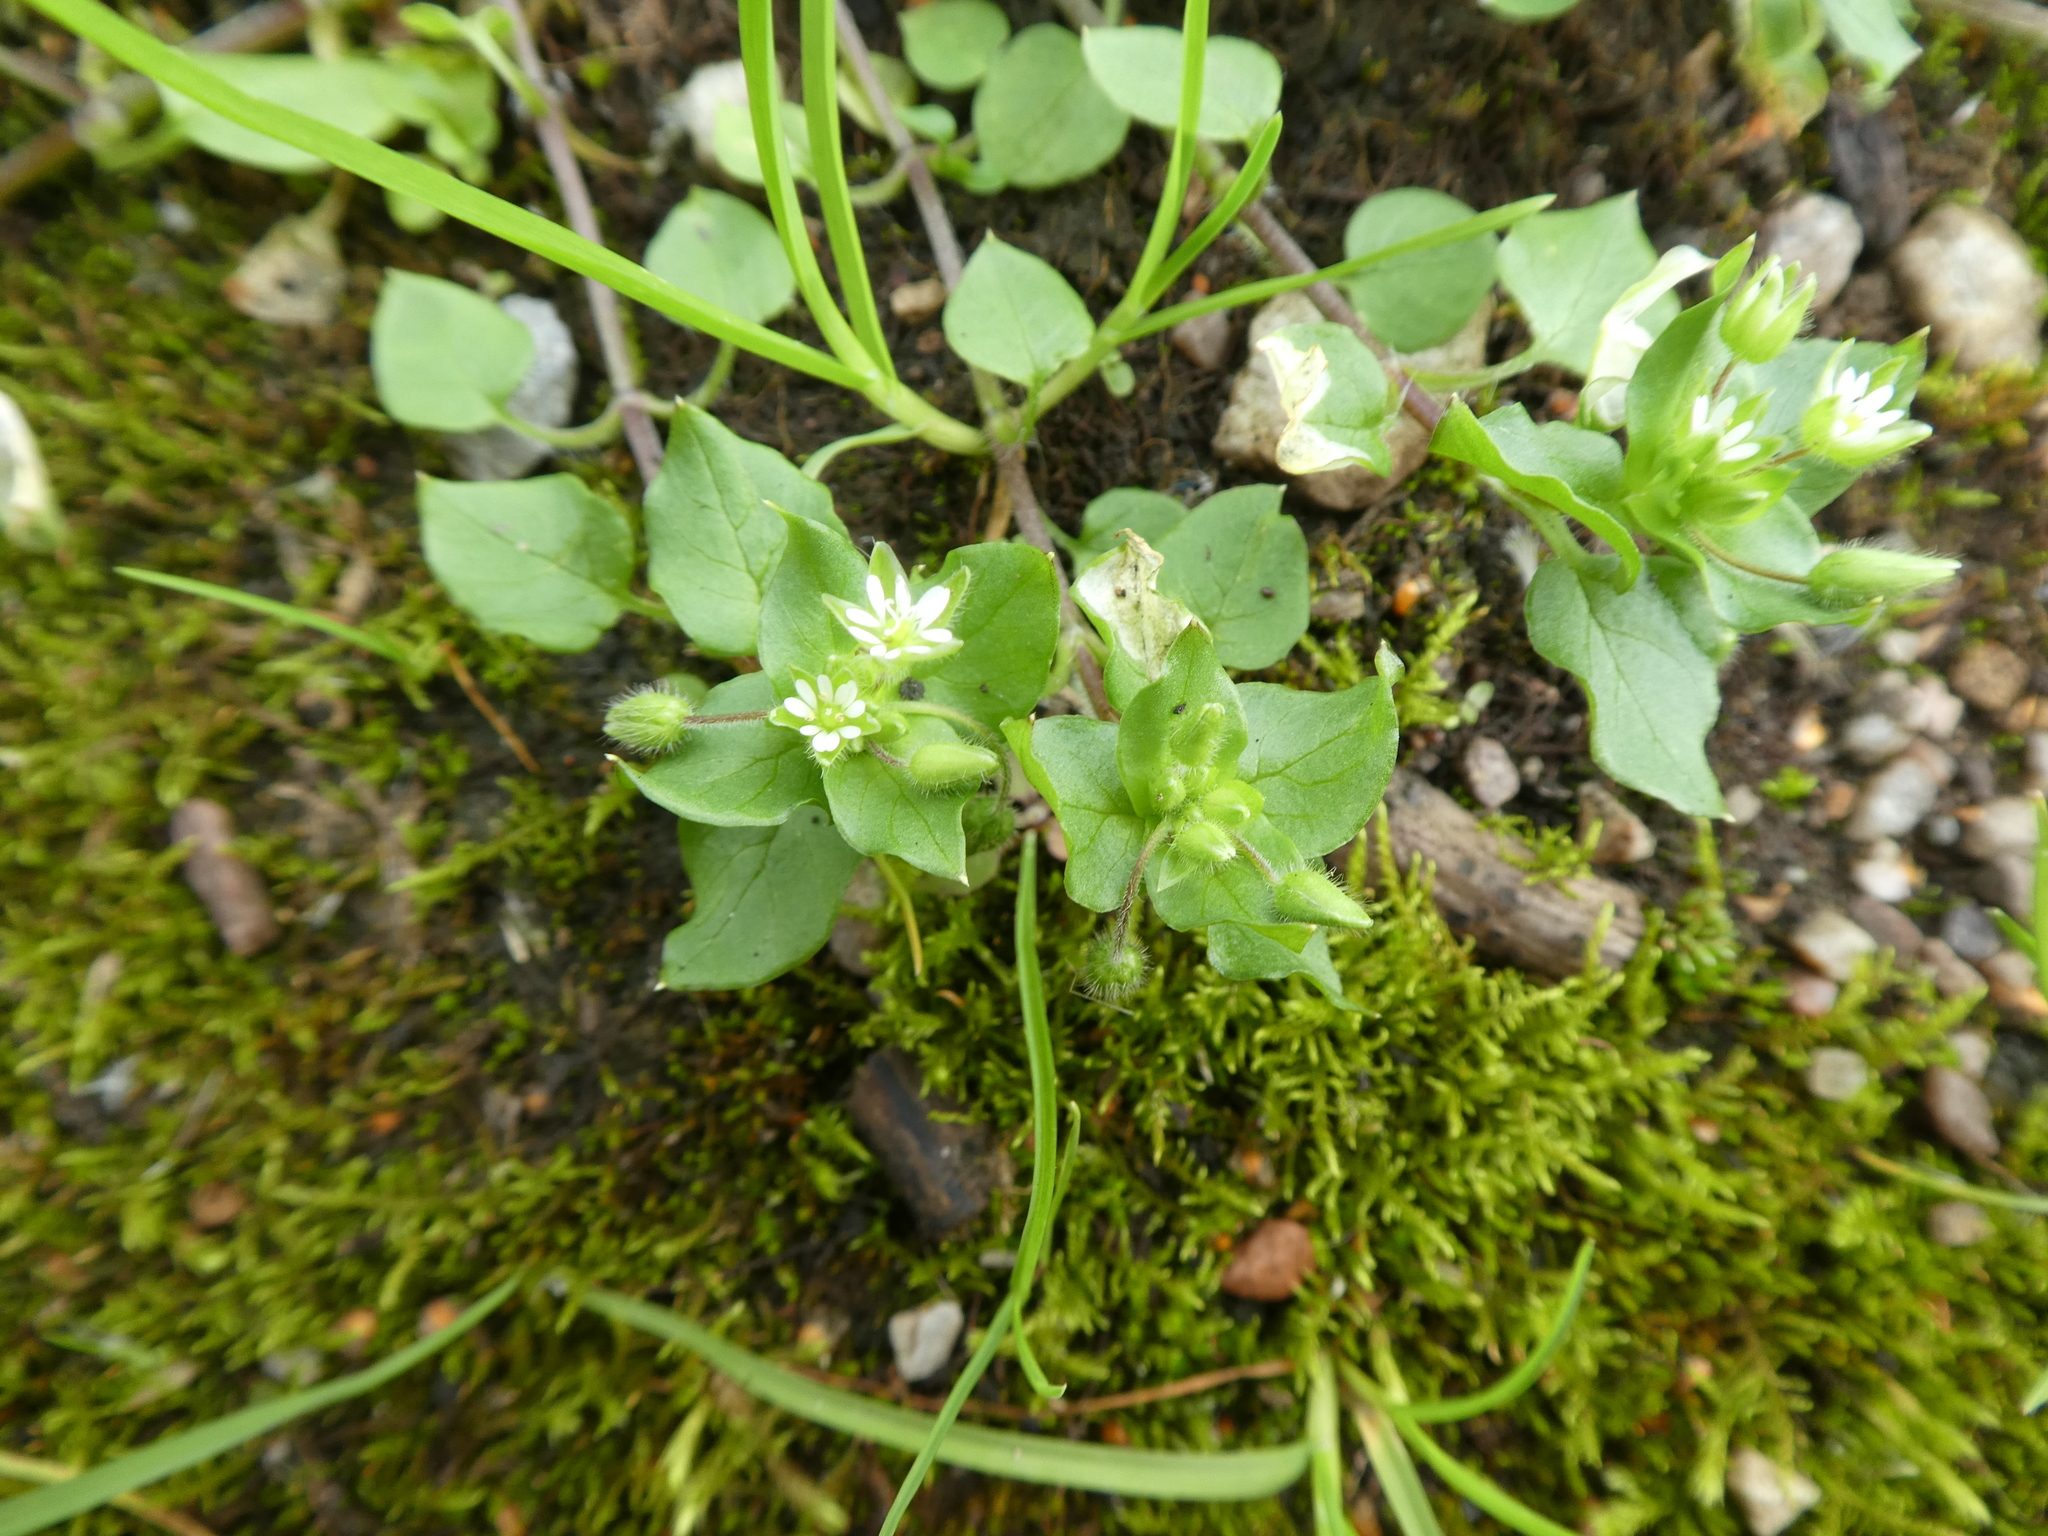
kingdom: Plantae
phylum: Tracheophyta
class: Magnoliopsida
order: Caryophyllales
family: Caryophyllaceae
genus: Stellaria
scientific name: Stellaria media
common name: Common chickweed
